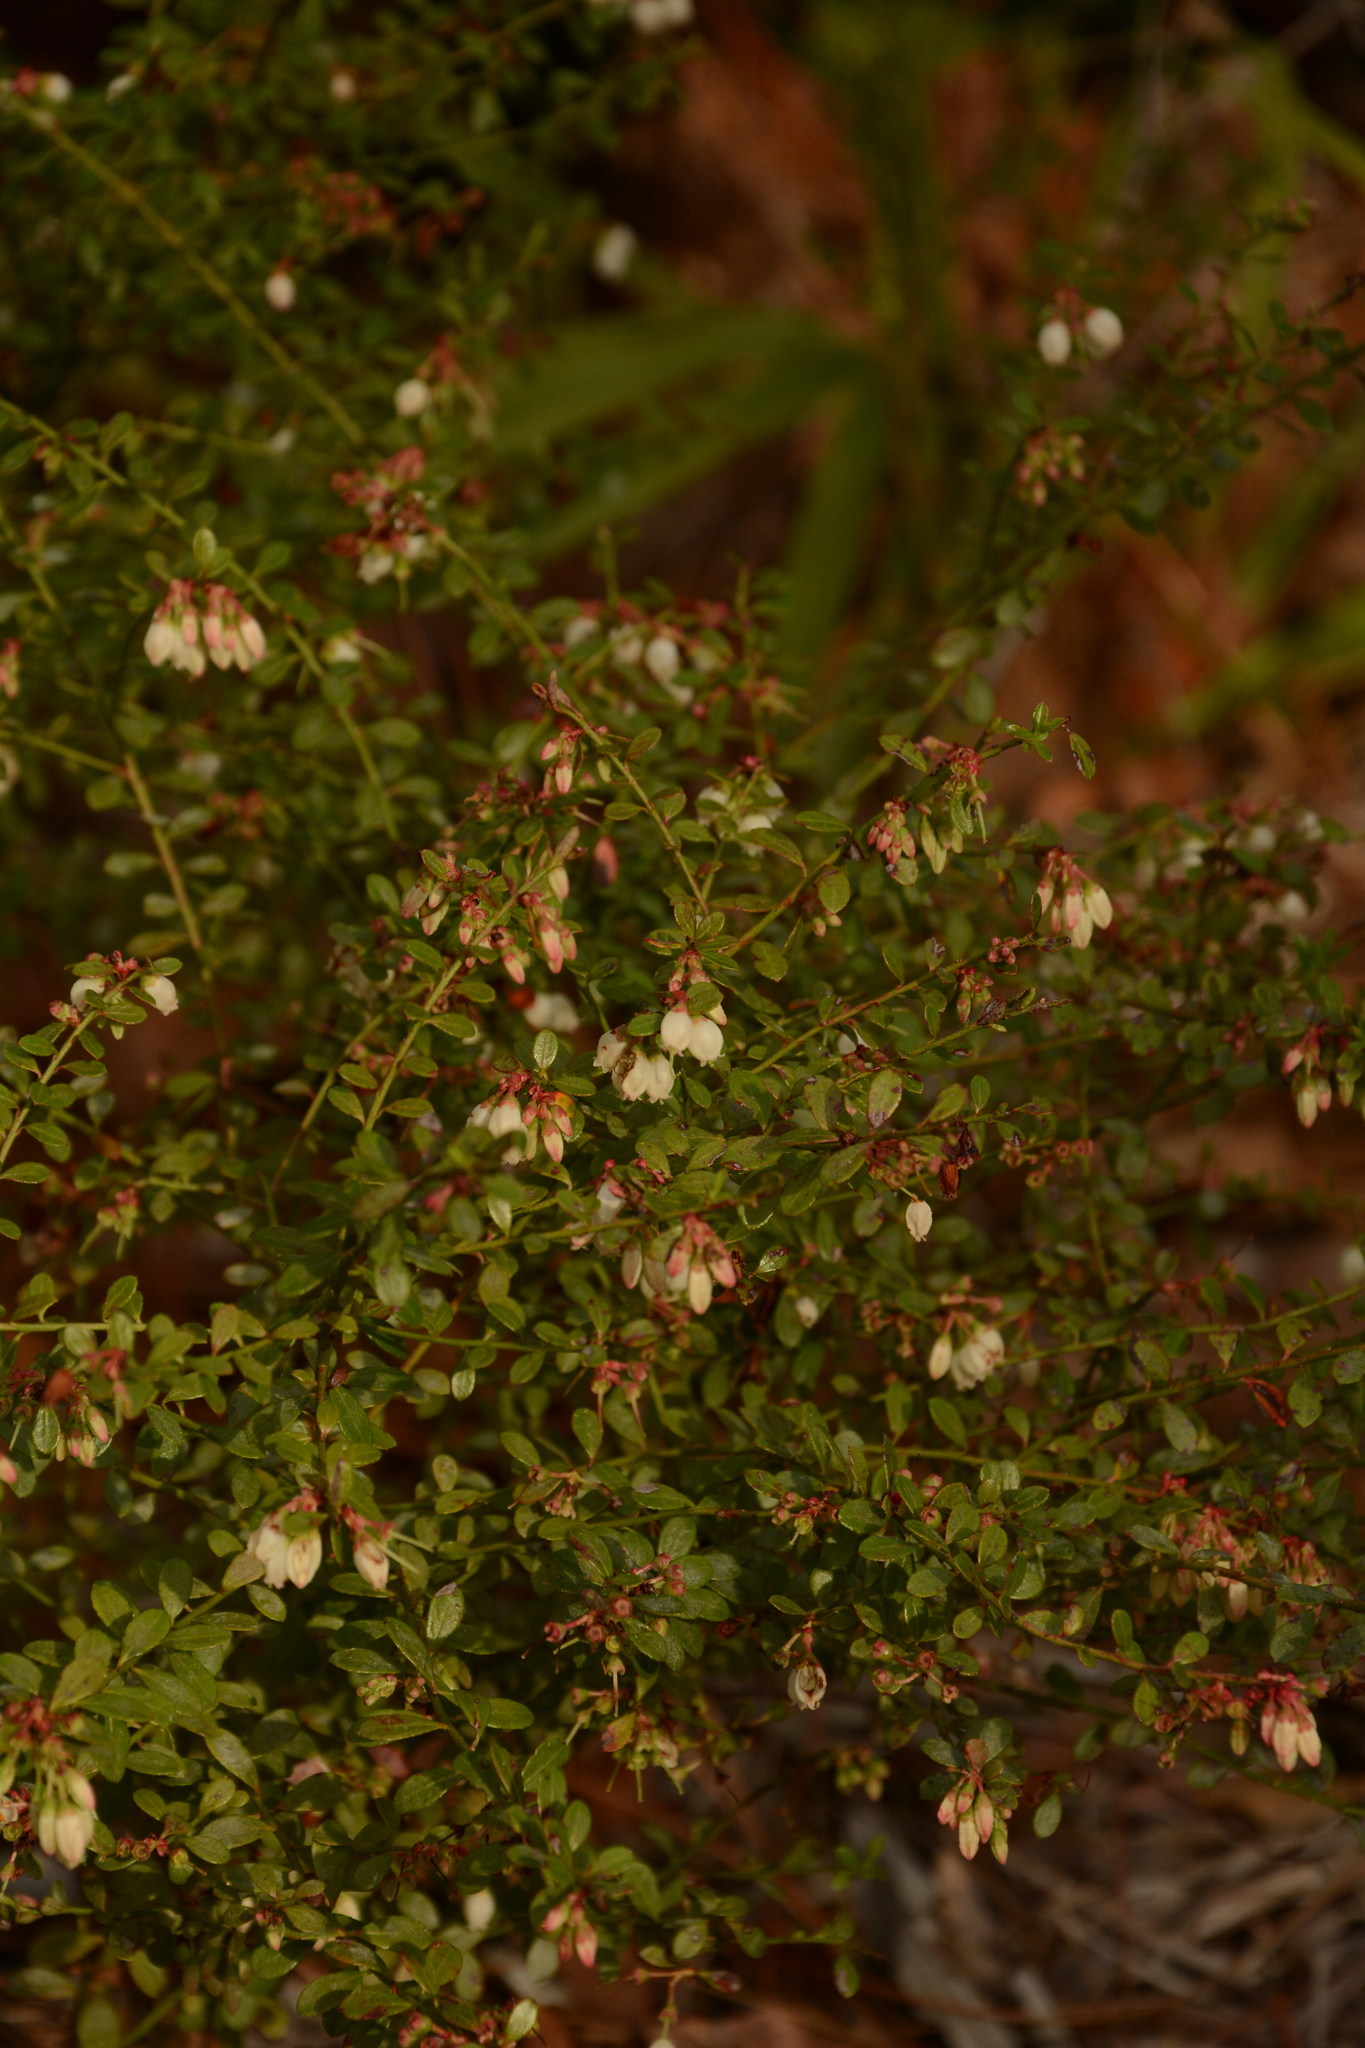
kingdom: Plantae
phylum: Tracheophyta
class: Magnoliopsida
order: Ericales
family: Ericaceae
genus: Vaccinium
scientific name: Vaccinium myrsinites
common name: Evergreen blueberry
